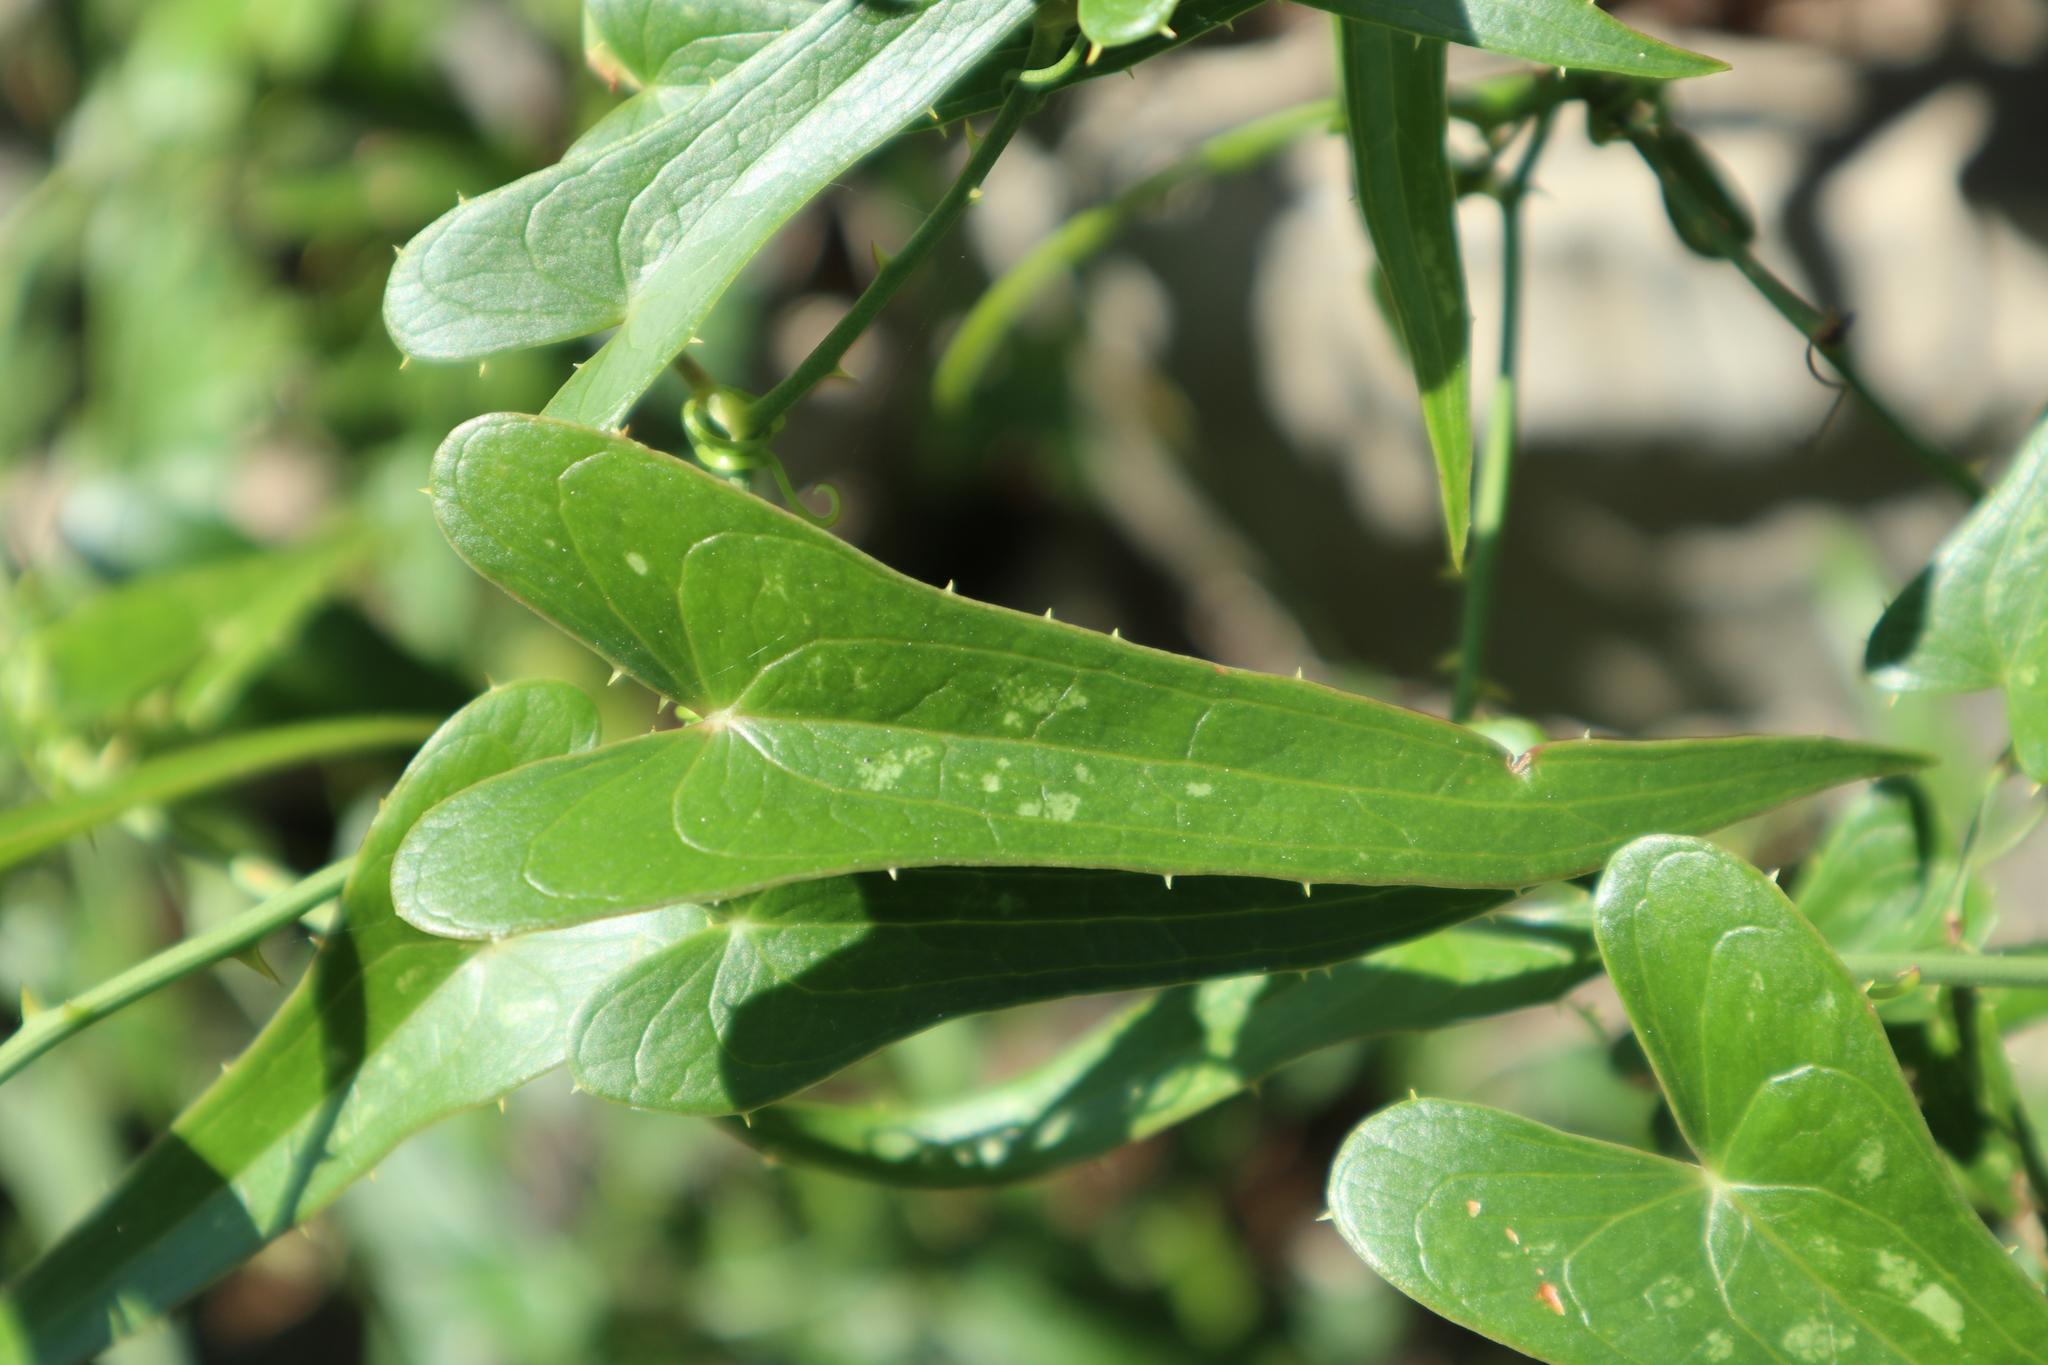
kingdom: Plantae
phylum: Tracheophyta
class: Liliopsida
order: Liliales
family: Smilacaceae
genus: Smilax
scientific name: Smilax aspera
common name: Common smilax
